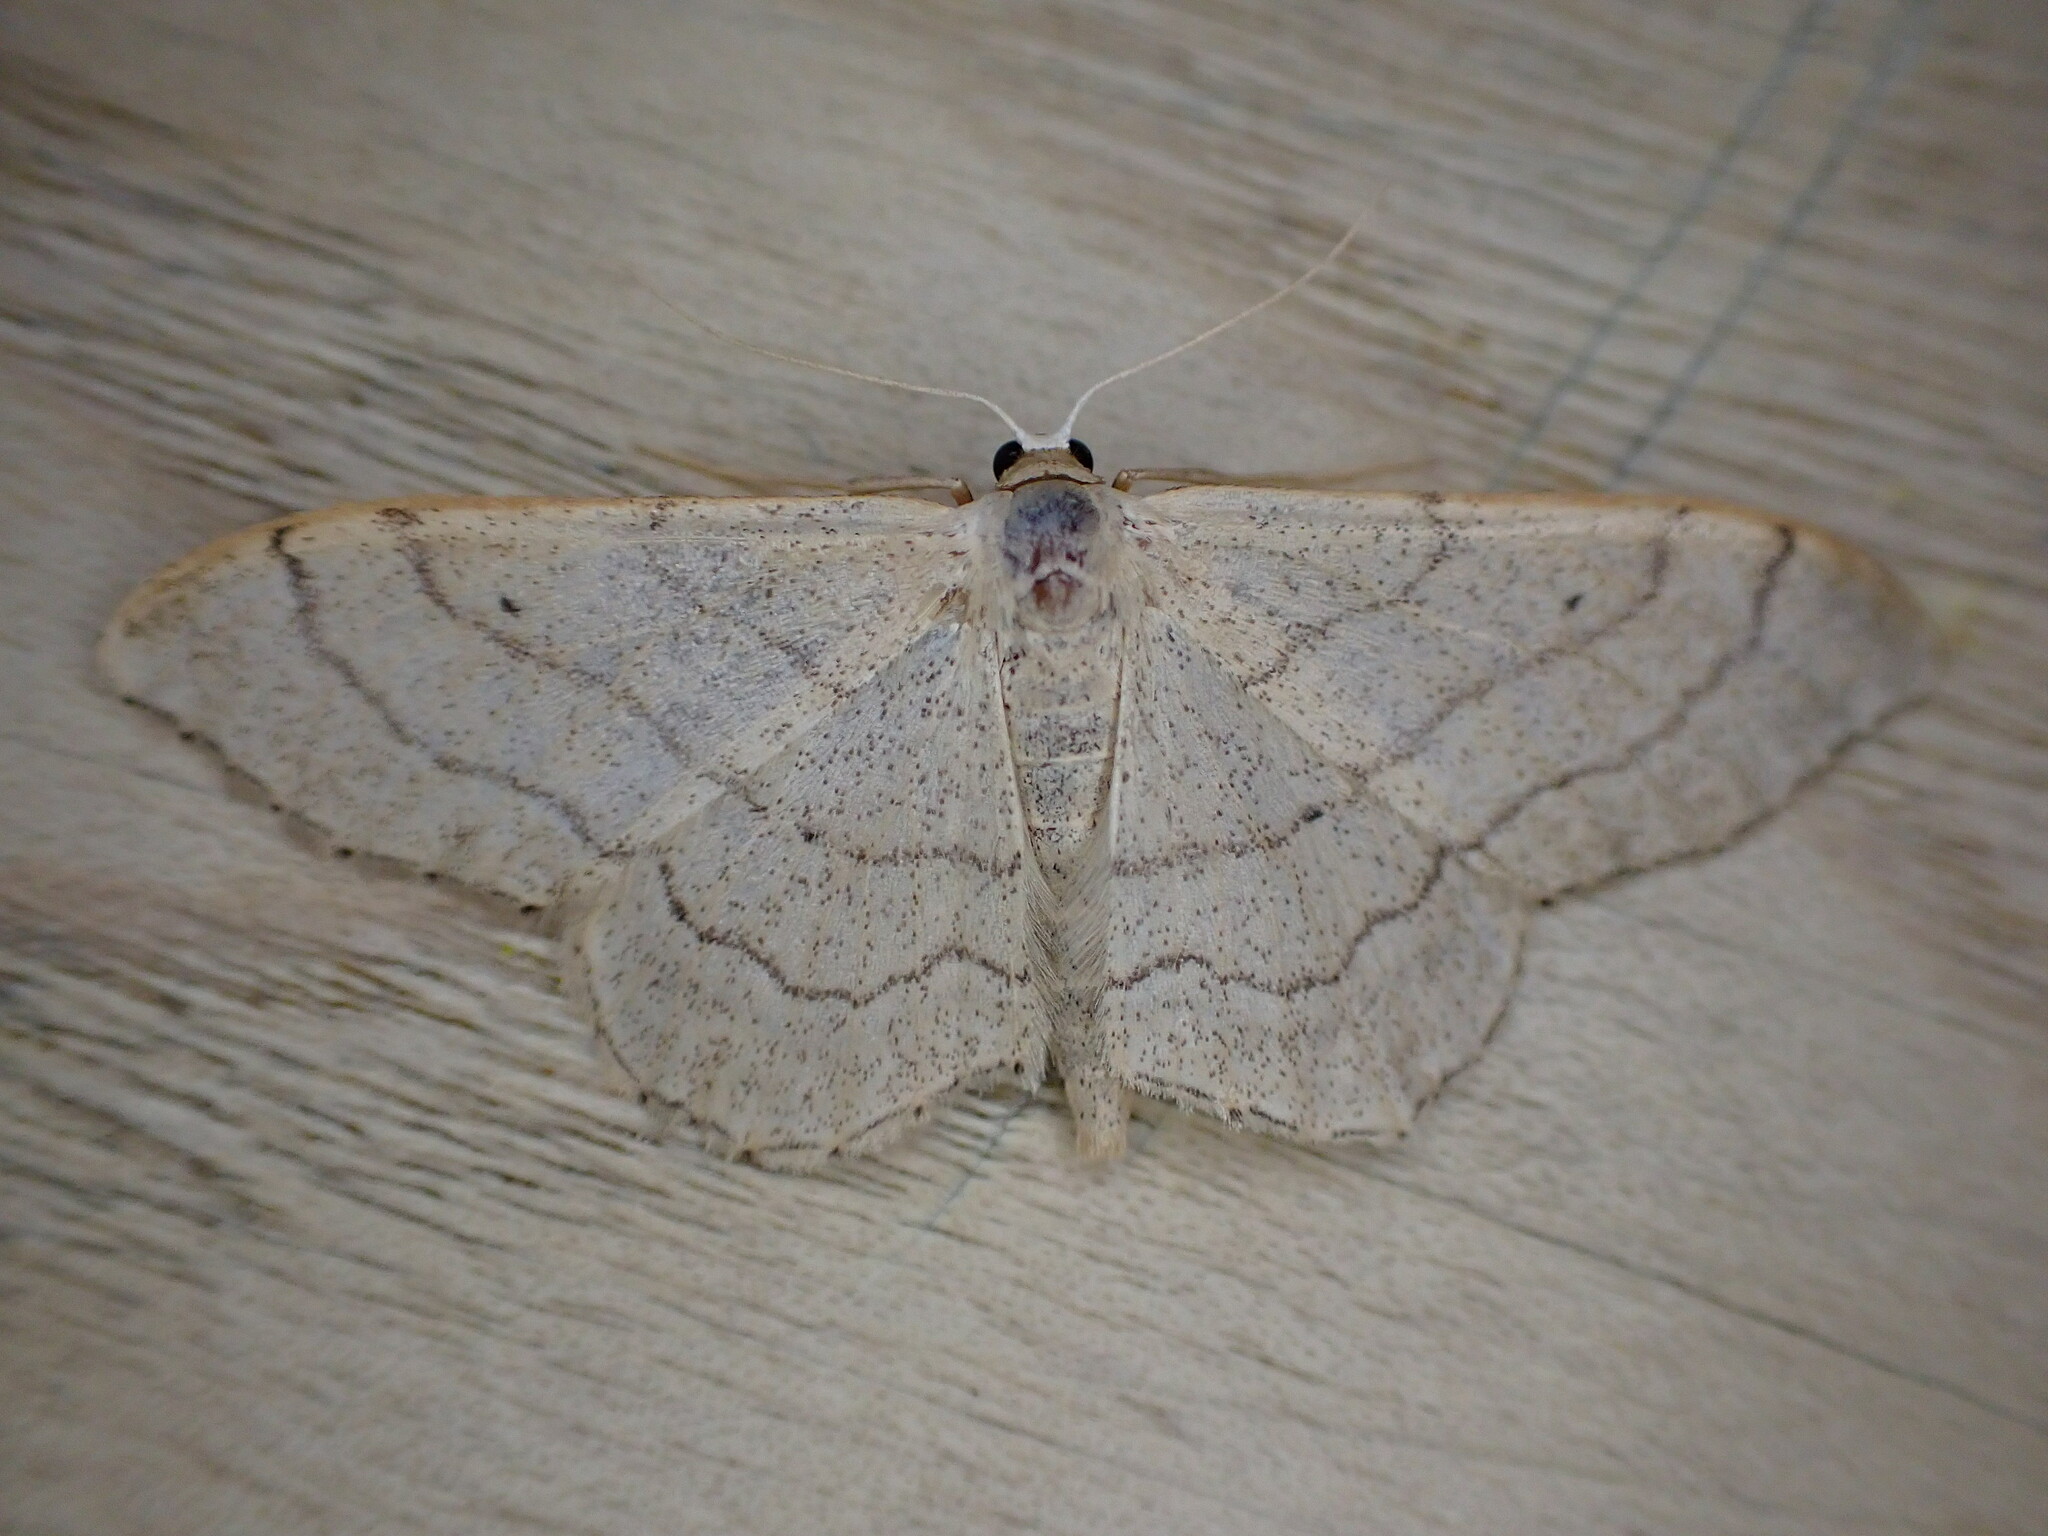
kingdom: Animalia
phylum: Arthropoda
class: Insecta
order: Lepidoptera
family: Geometridae
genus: Idaea
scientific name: Idaea aversata
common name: Riband wave
